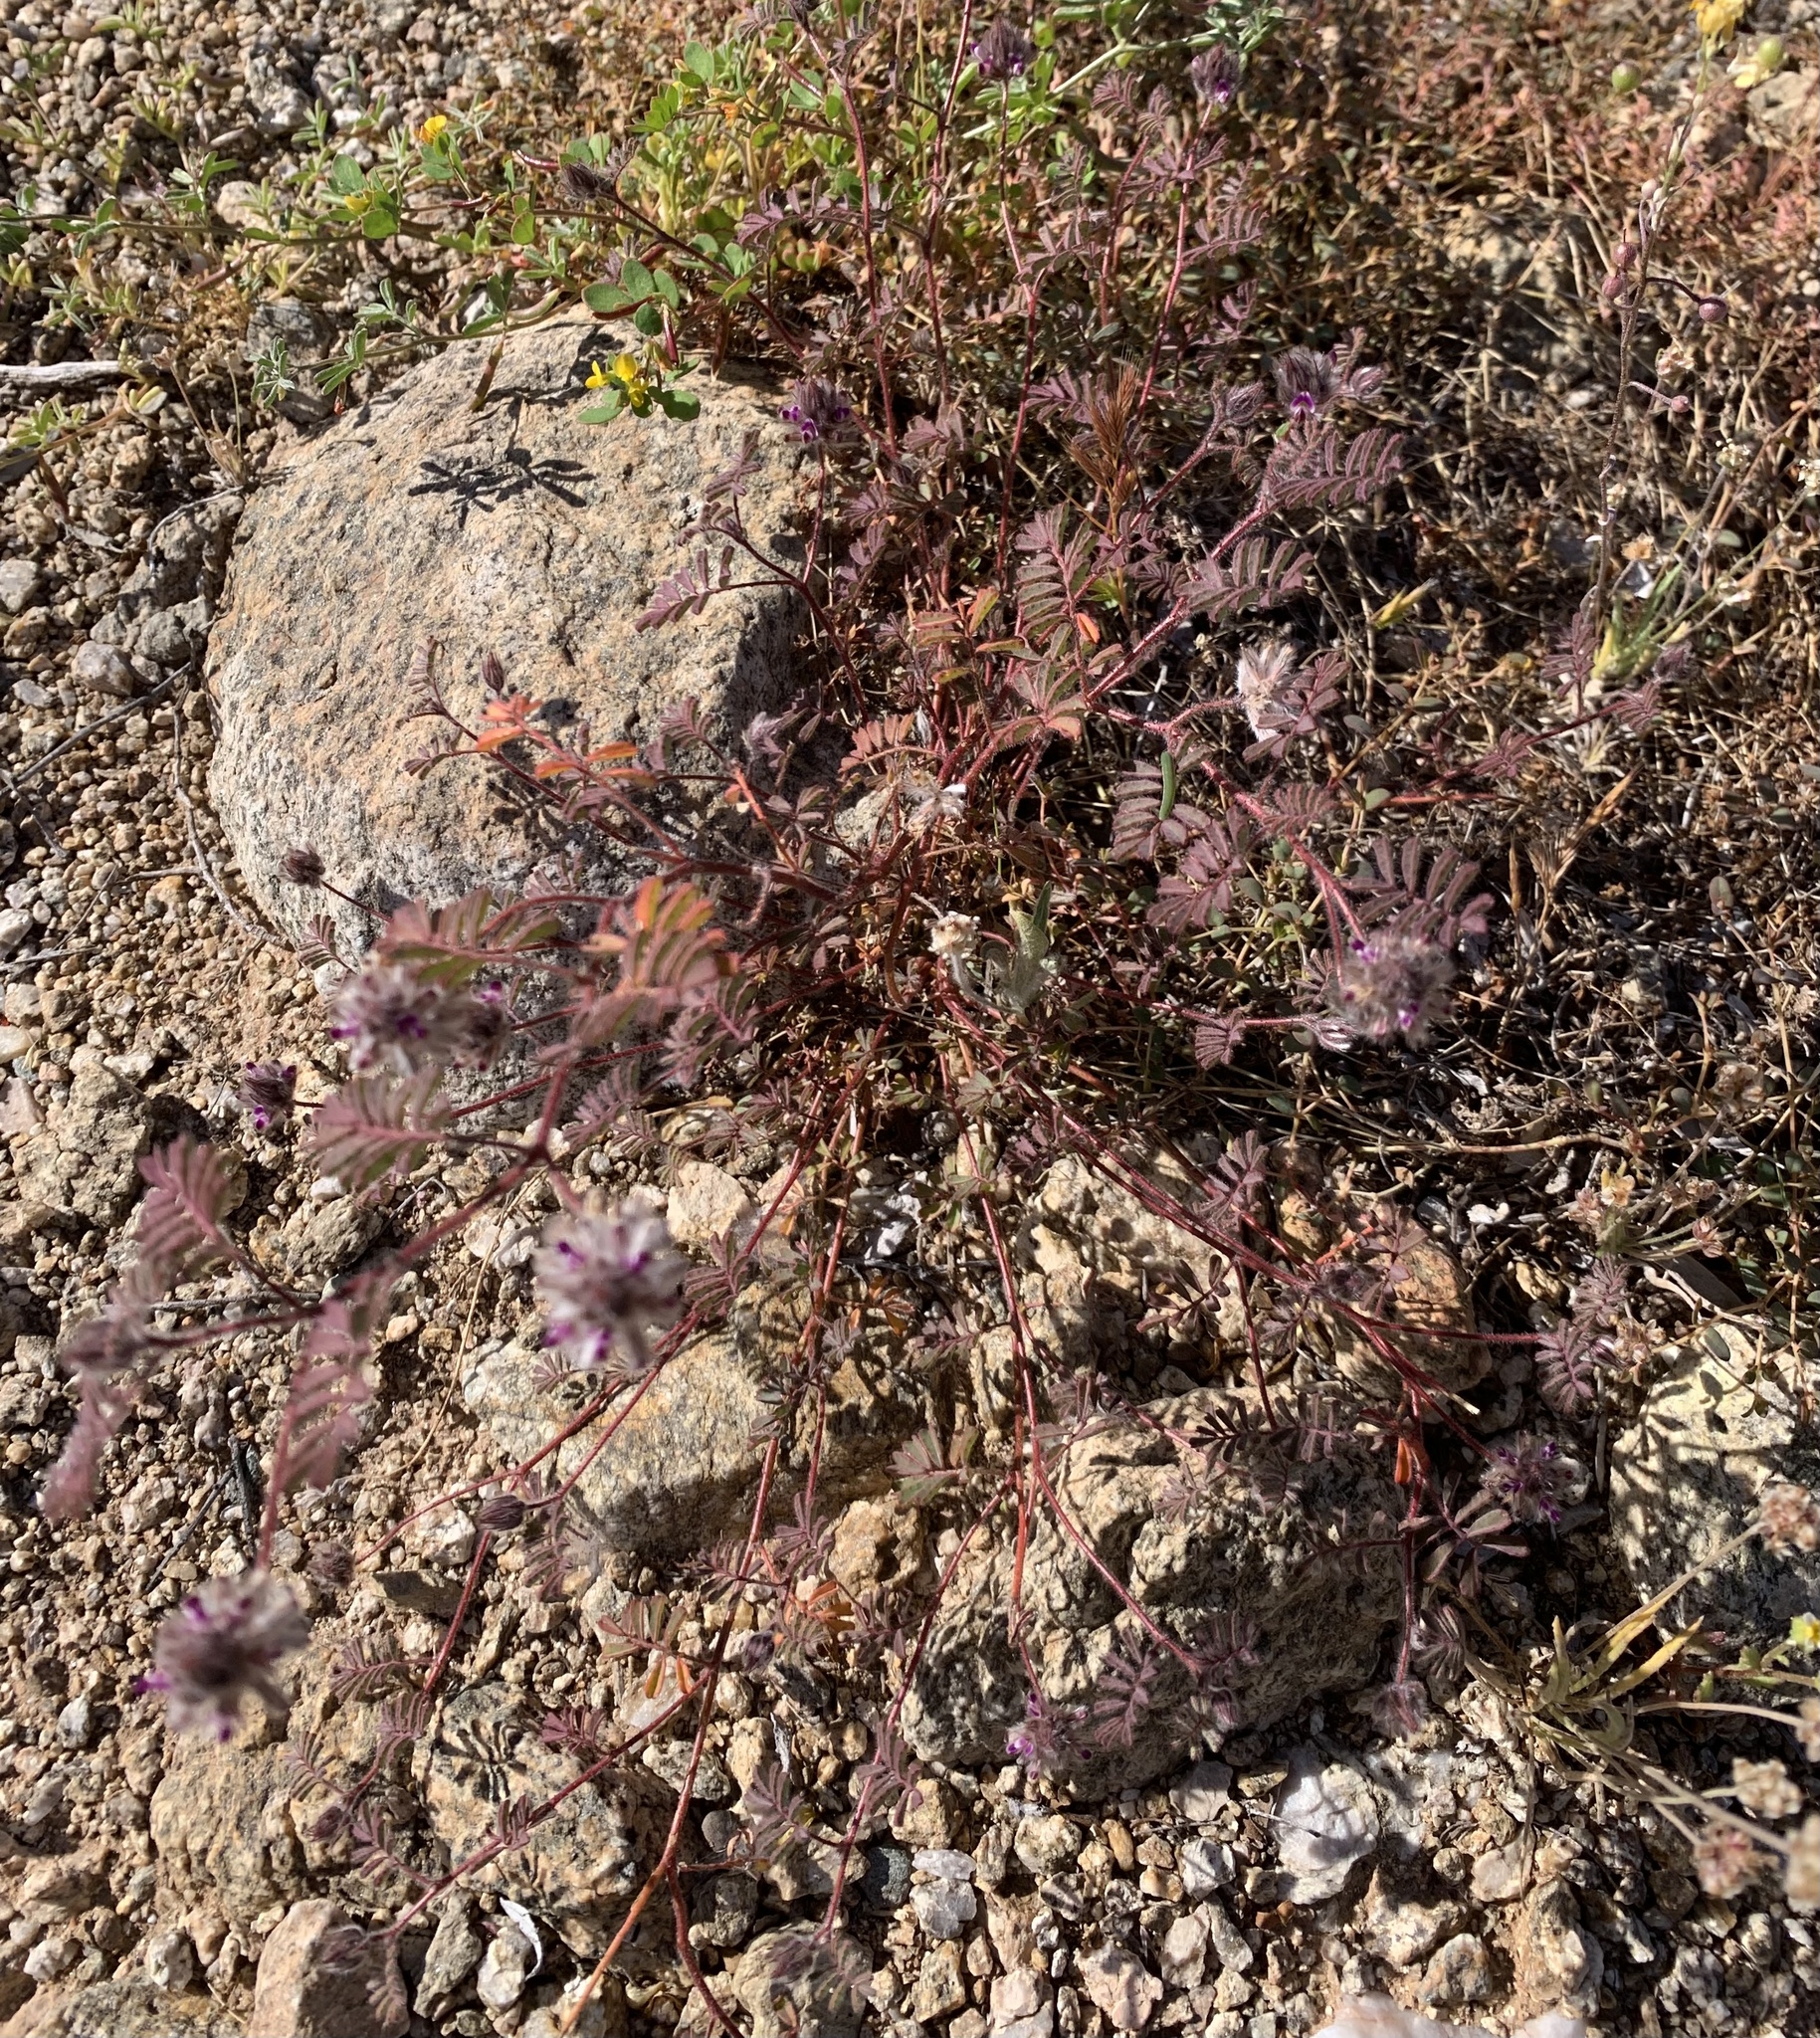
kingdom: Plantae
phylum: Tracheophyta
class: Magnoliopsida
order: Fabales
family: Fabaceae
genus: Dalea
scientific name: Dalea mollis
